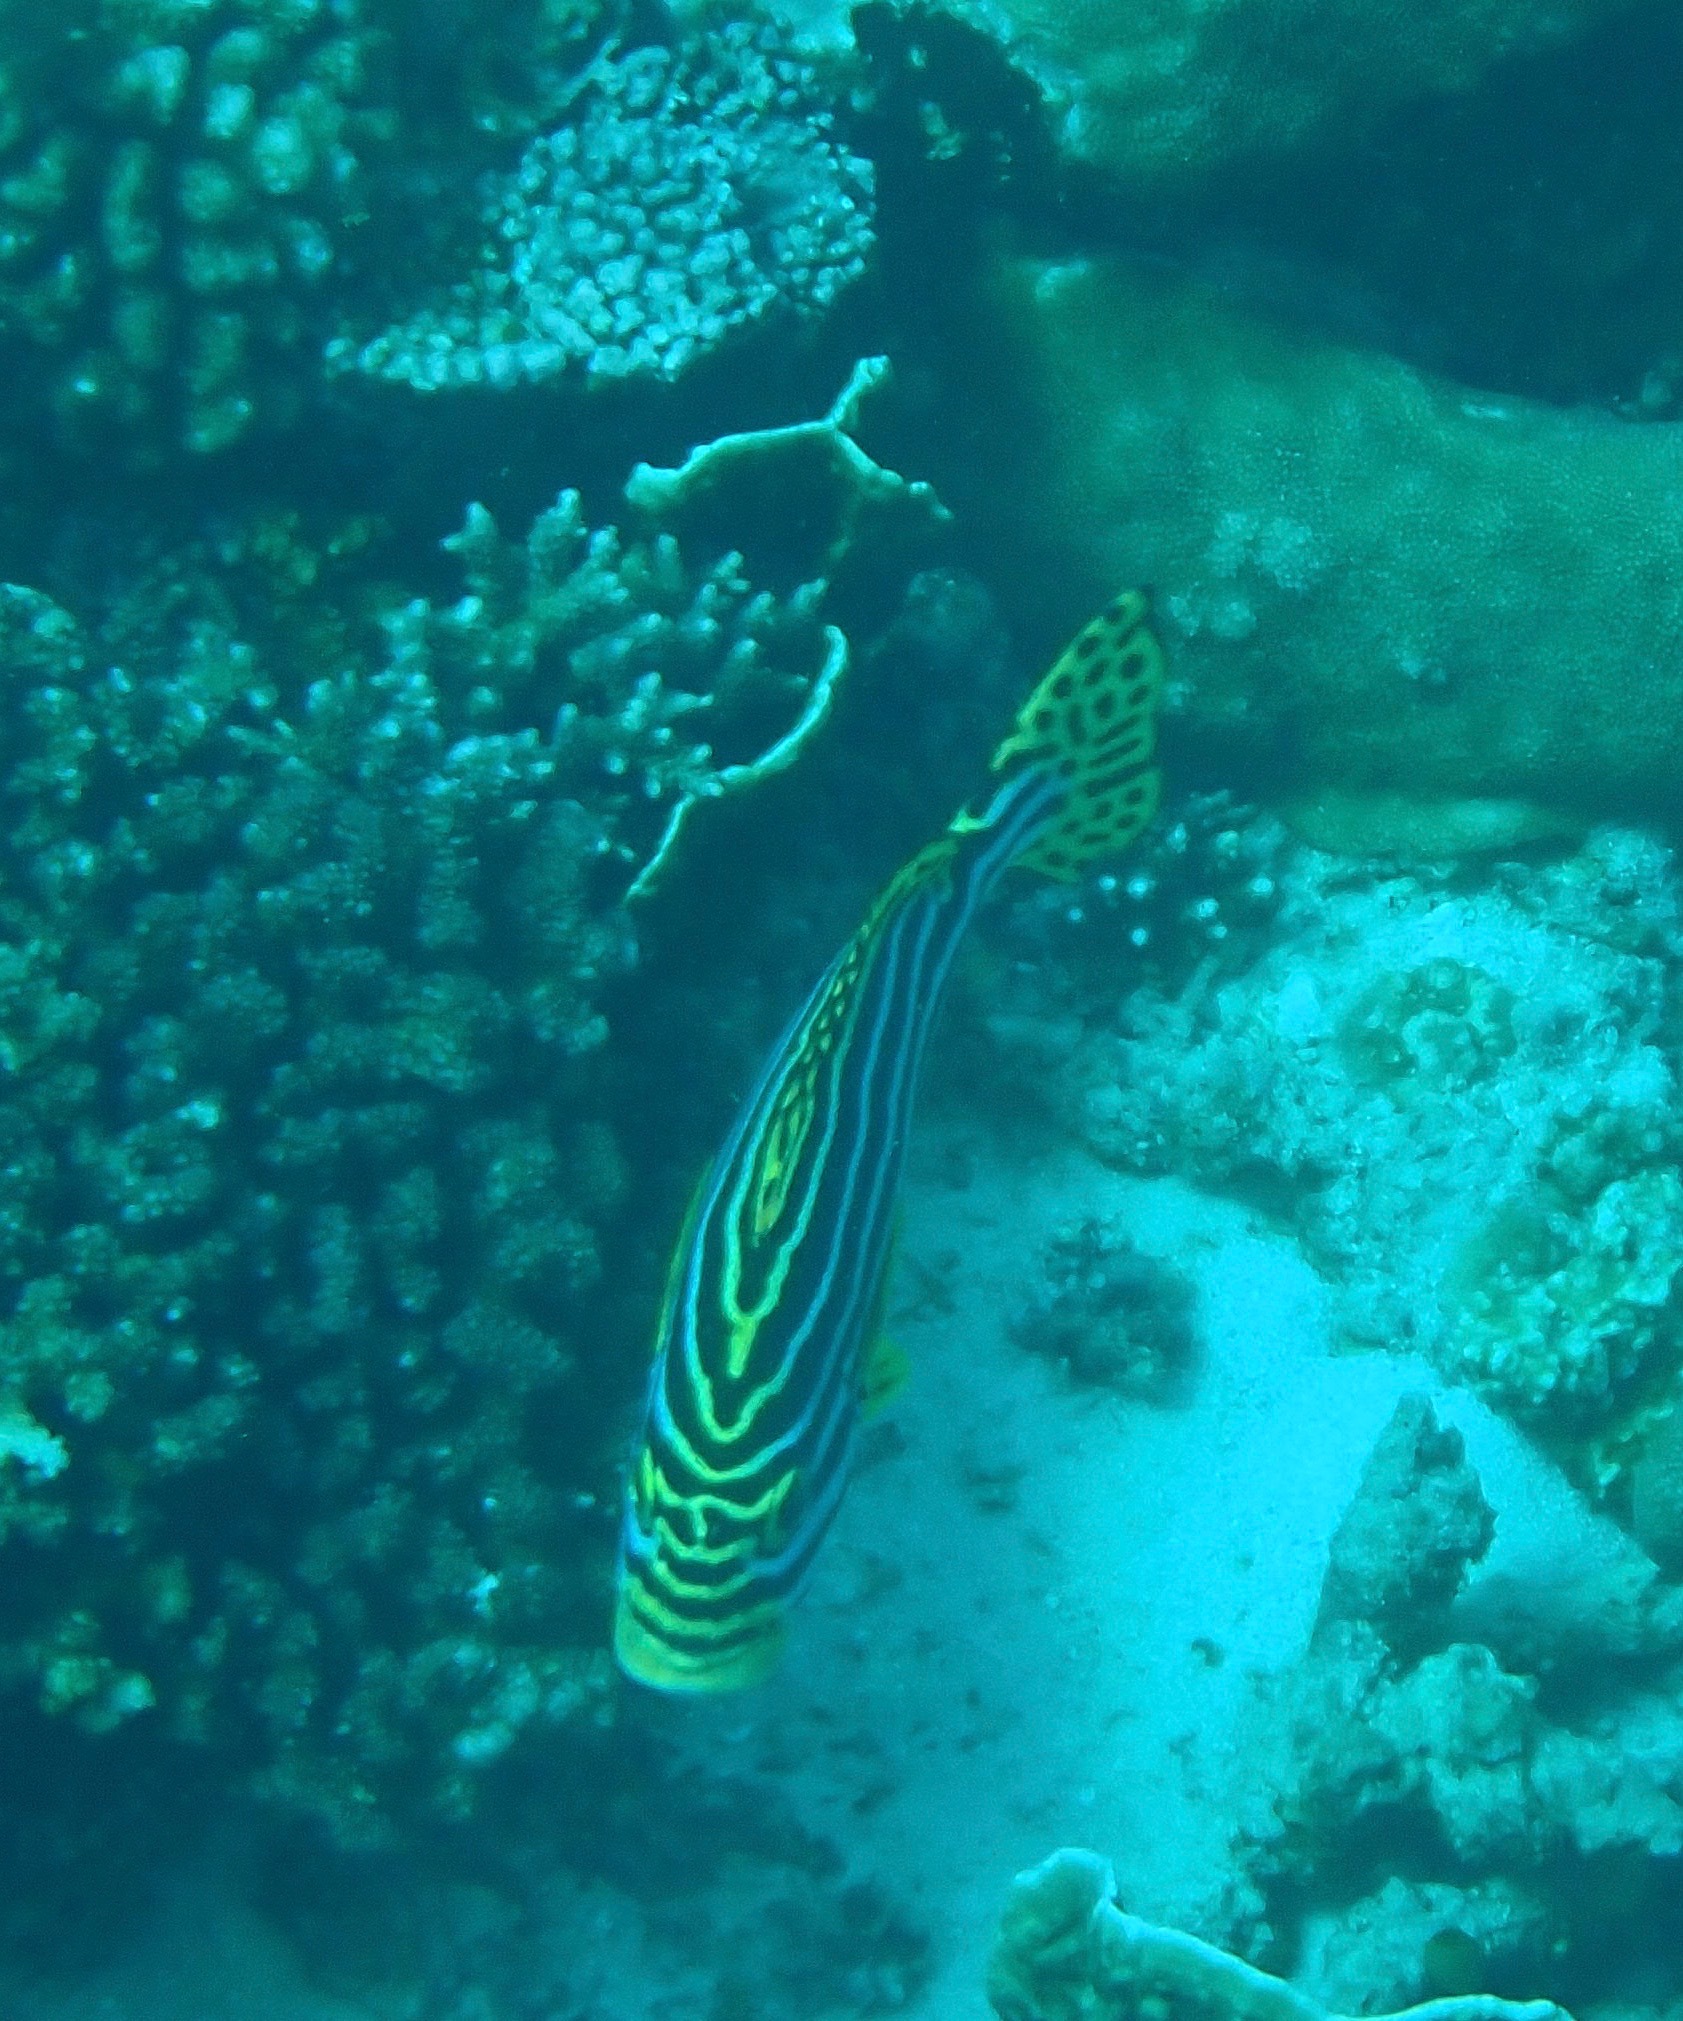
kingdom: Animalia
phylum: Chordata
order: Perciformes
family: Haemulidae
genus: Plectorhinchus
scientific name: Plectorhinchus vittatus
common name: Oriental sweetlips
